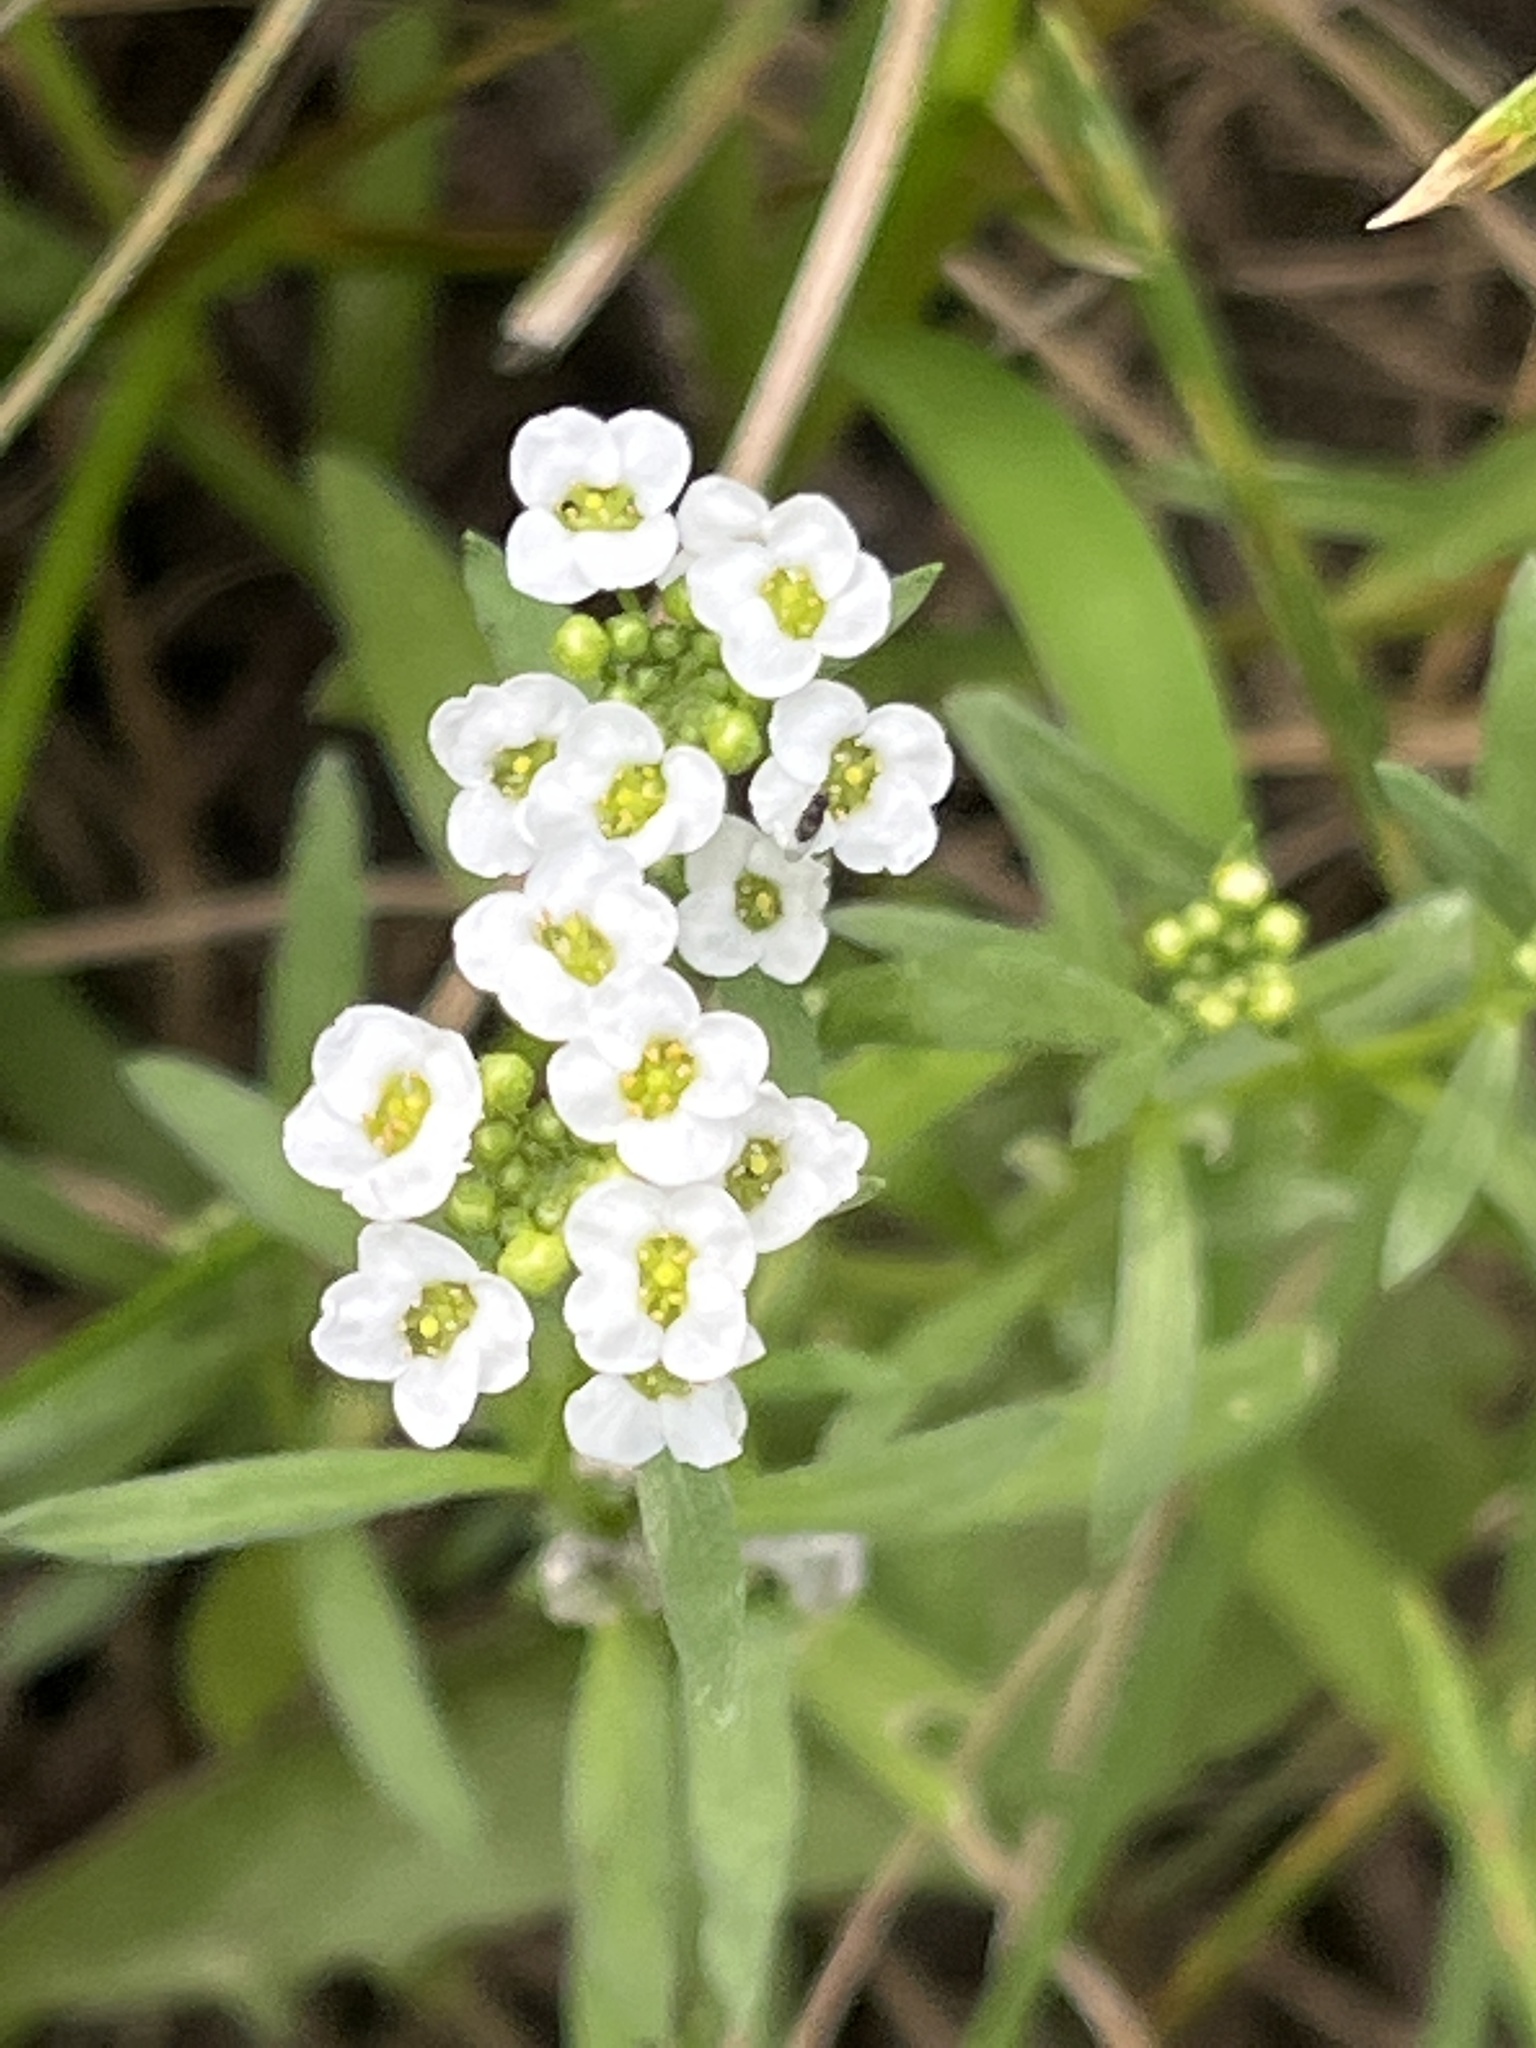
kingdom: Plantae
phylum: Tracheophyta
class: Magnoliopsida
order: Brassicales
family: Brassicaceae
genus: Lobularia
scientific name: Lobularia maritima
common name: Sweet alison
